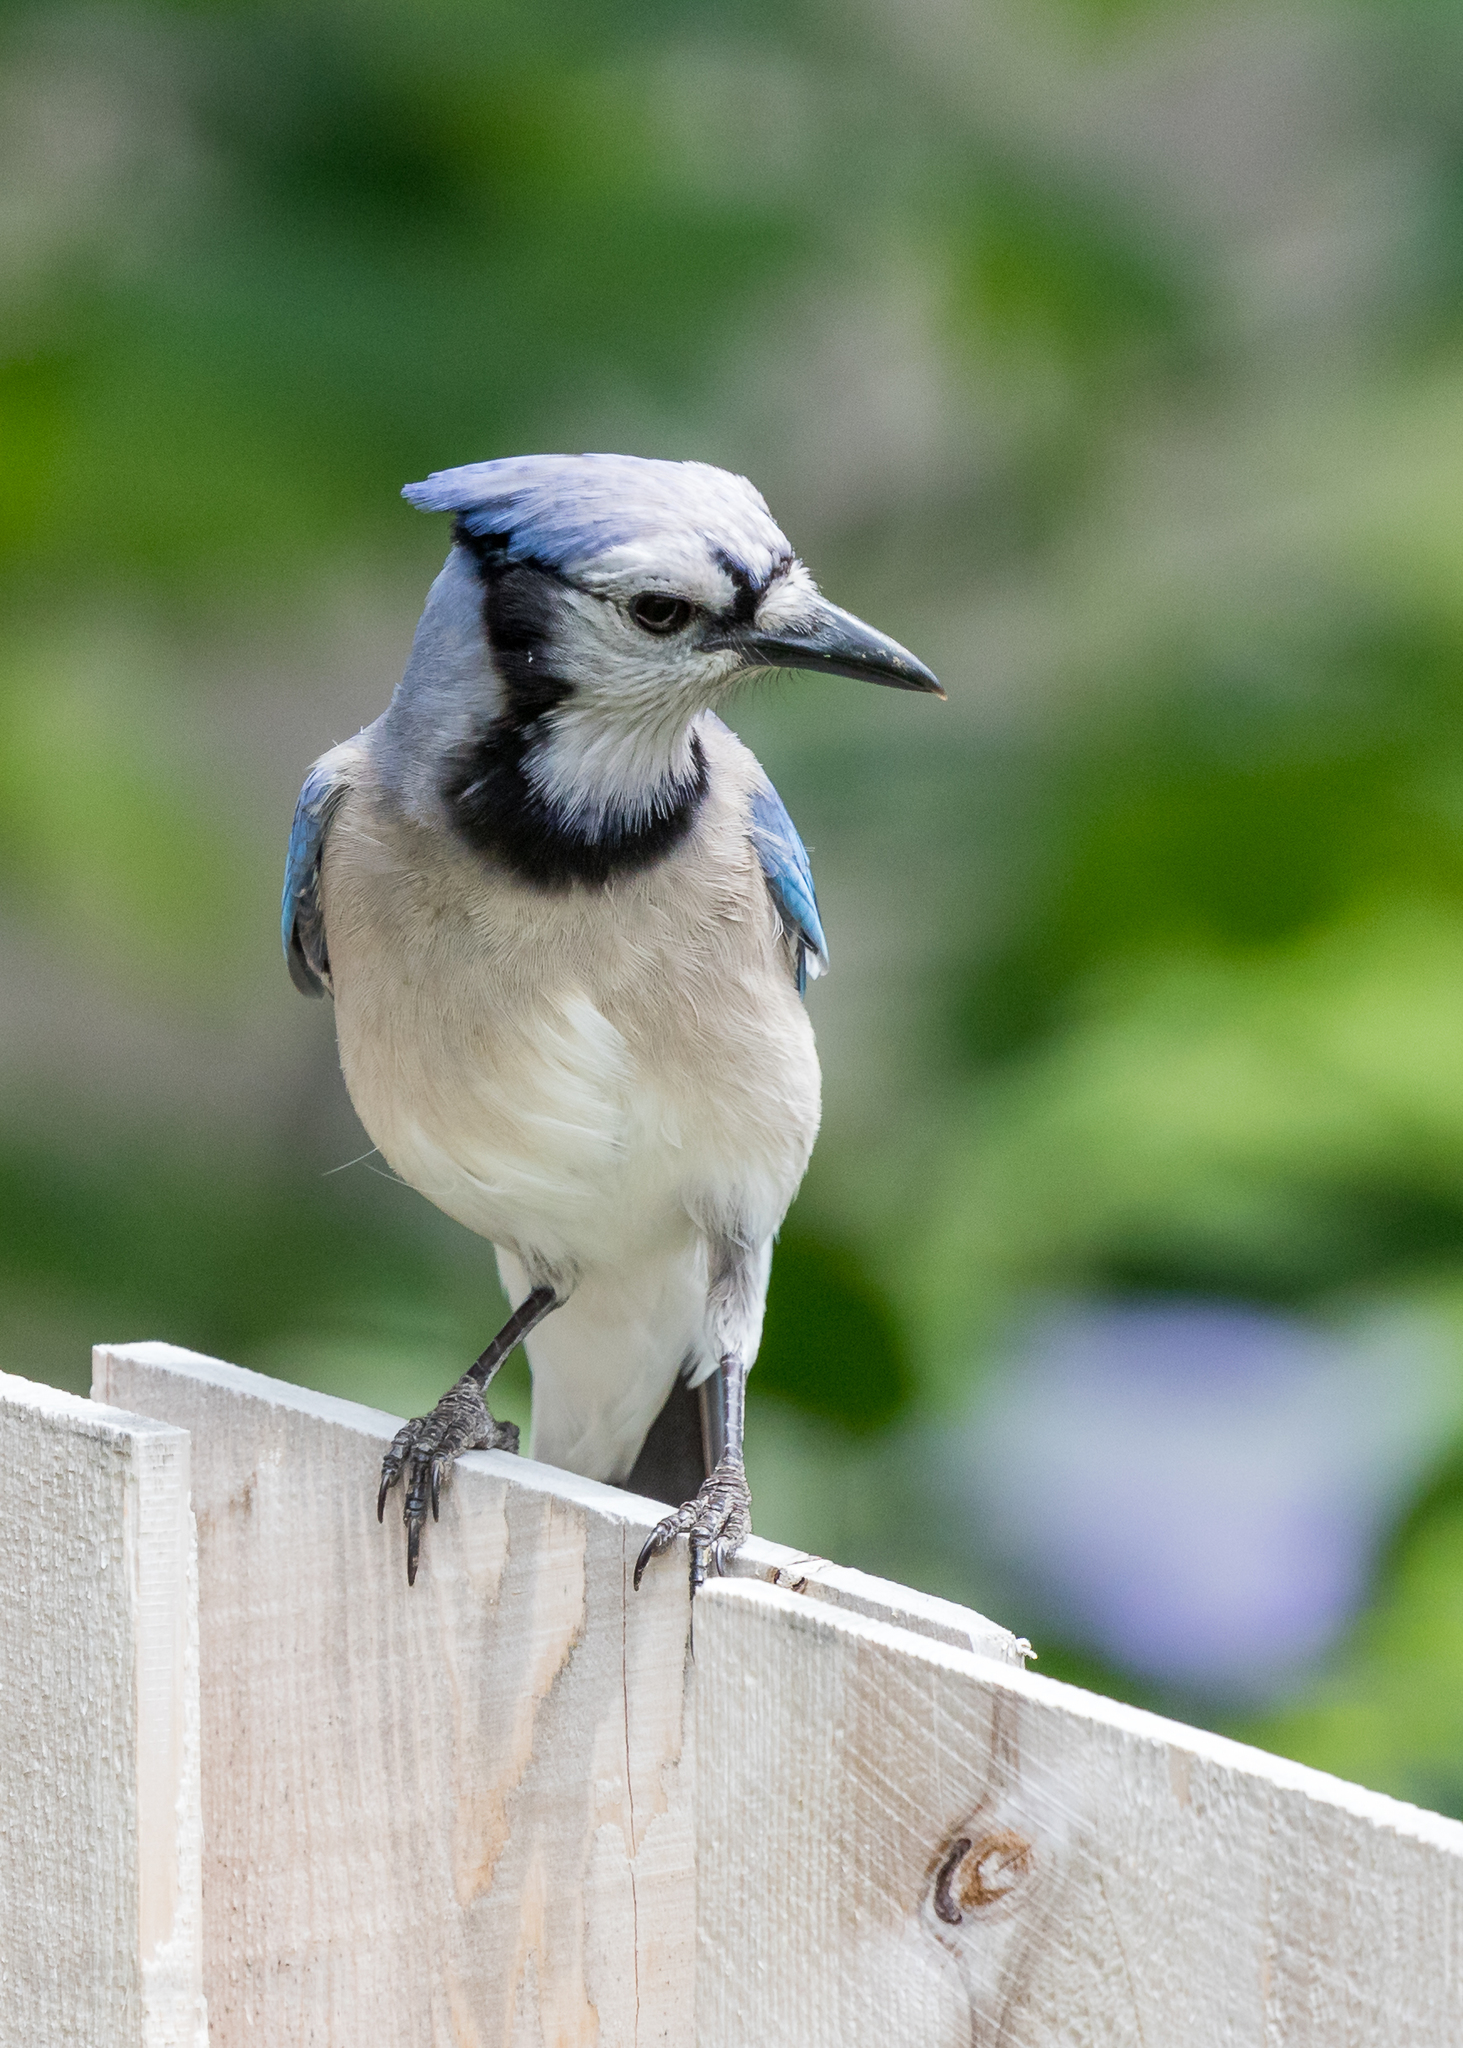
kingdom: Animalia
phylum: Chordata
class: Aves
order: Passeriformes
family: Corvidae
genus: Cyanocitta
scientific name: Cyanocitta cristata
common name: Blue jay
